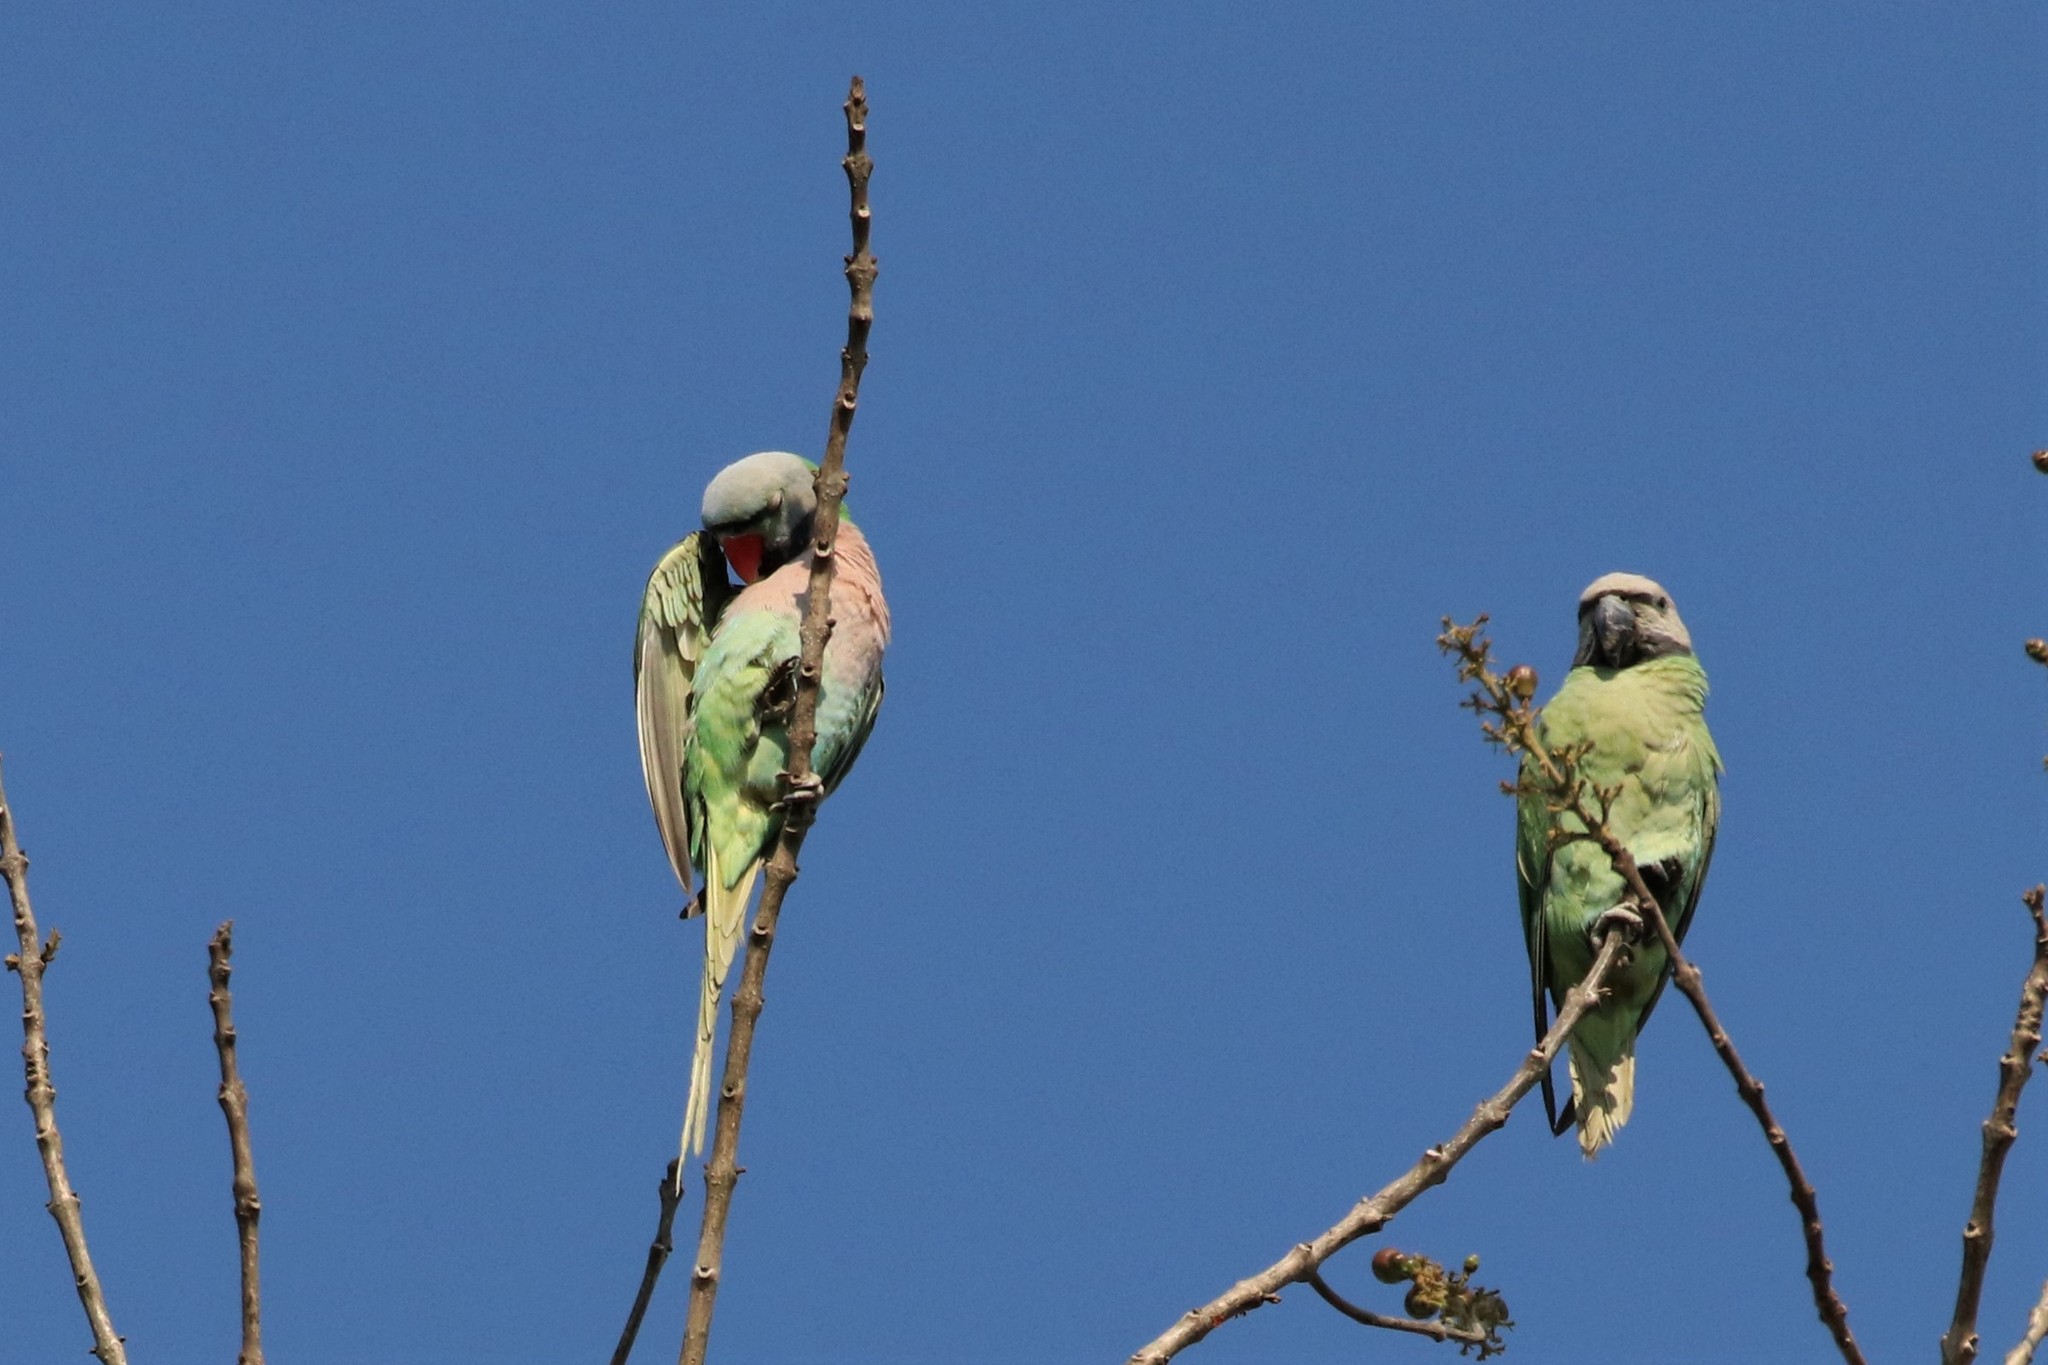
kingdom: Animalia
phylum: Chordata
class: Aves
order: Psittaciformes
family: Psittacidae
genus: Psittacula
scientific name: Psittacula alexandri
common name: Red-breasted parakeet
